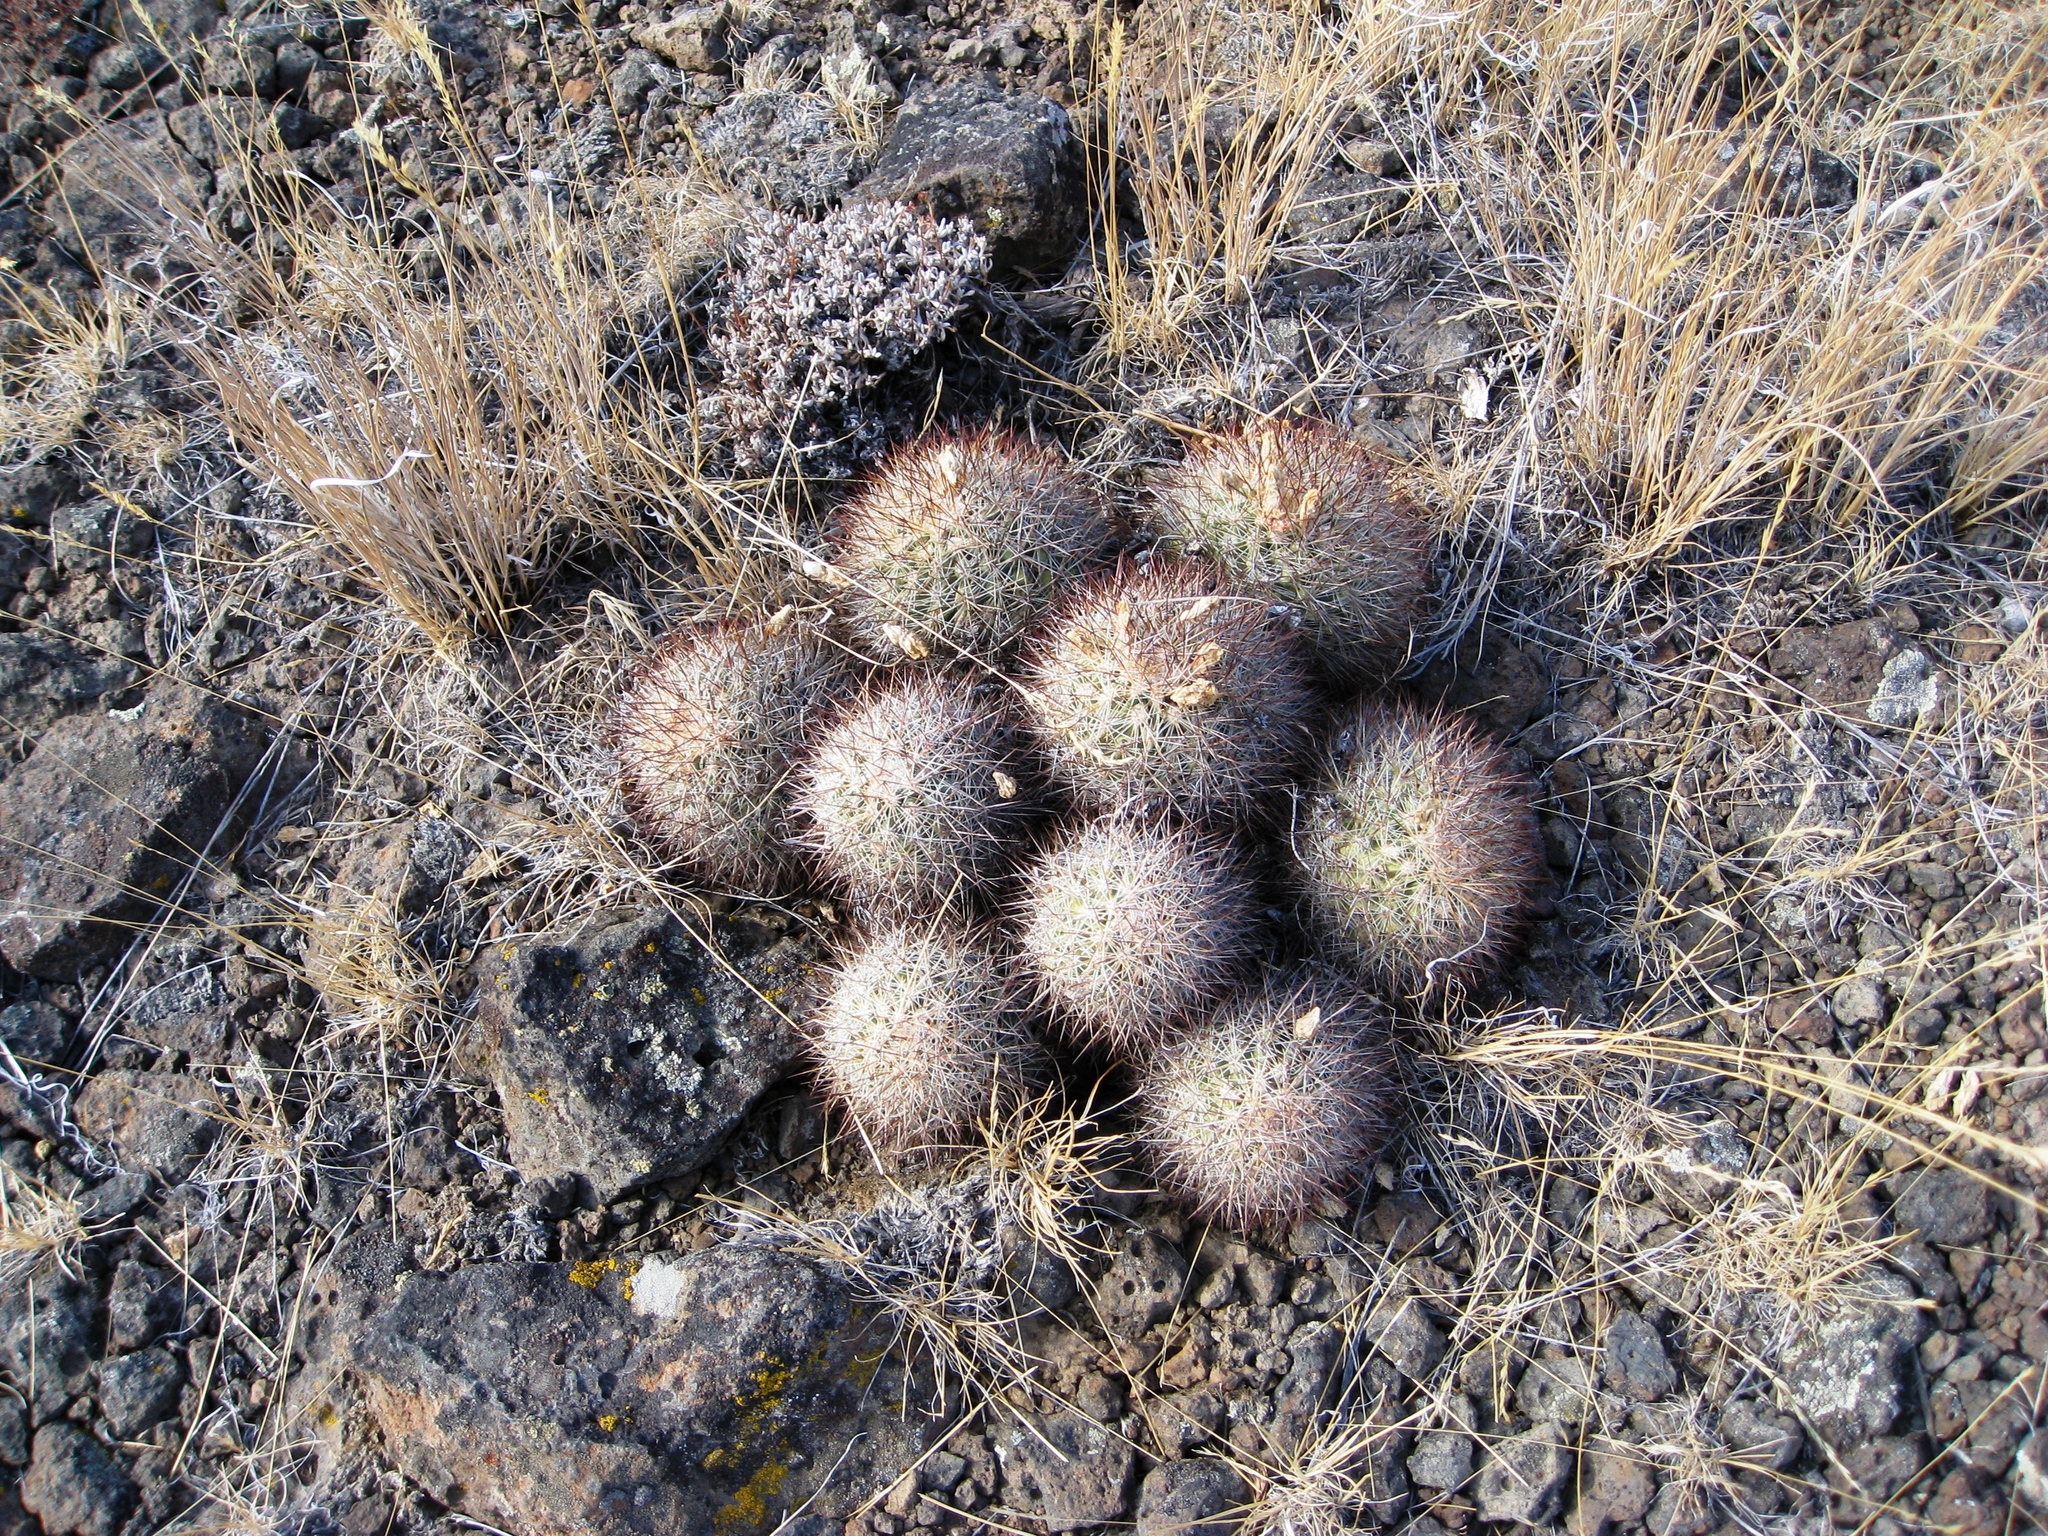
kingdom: Plantae
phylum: Tracheophyta
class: Magnoliopsida
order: Caryophyllales
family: Cactaceae
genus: Pediocactus
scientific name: Pediocactus nigrispinus
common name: Simpson's hedgehog cactus
